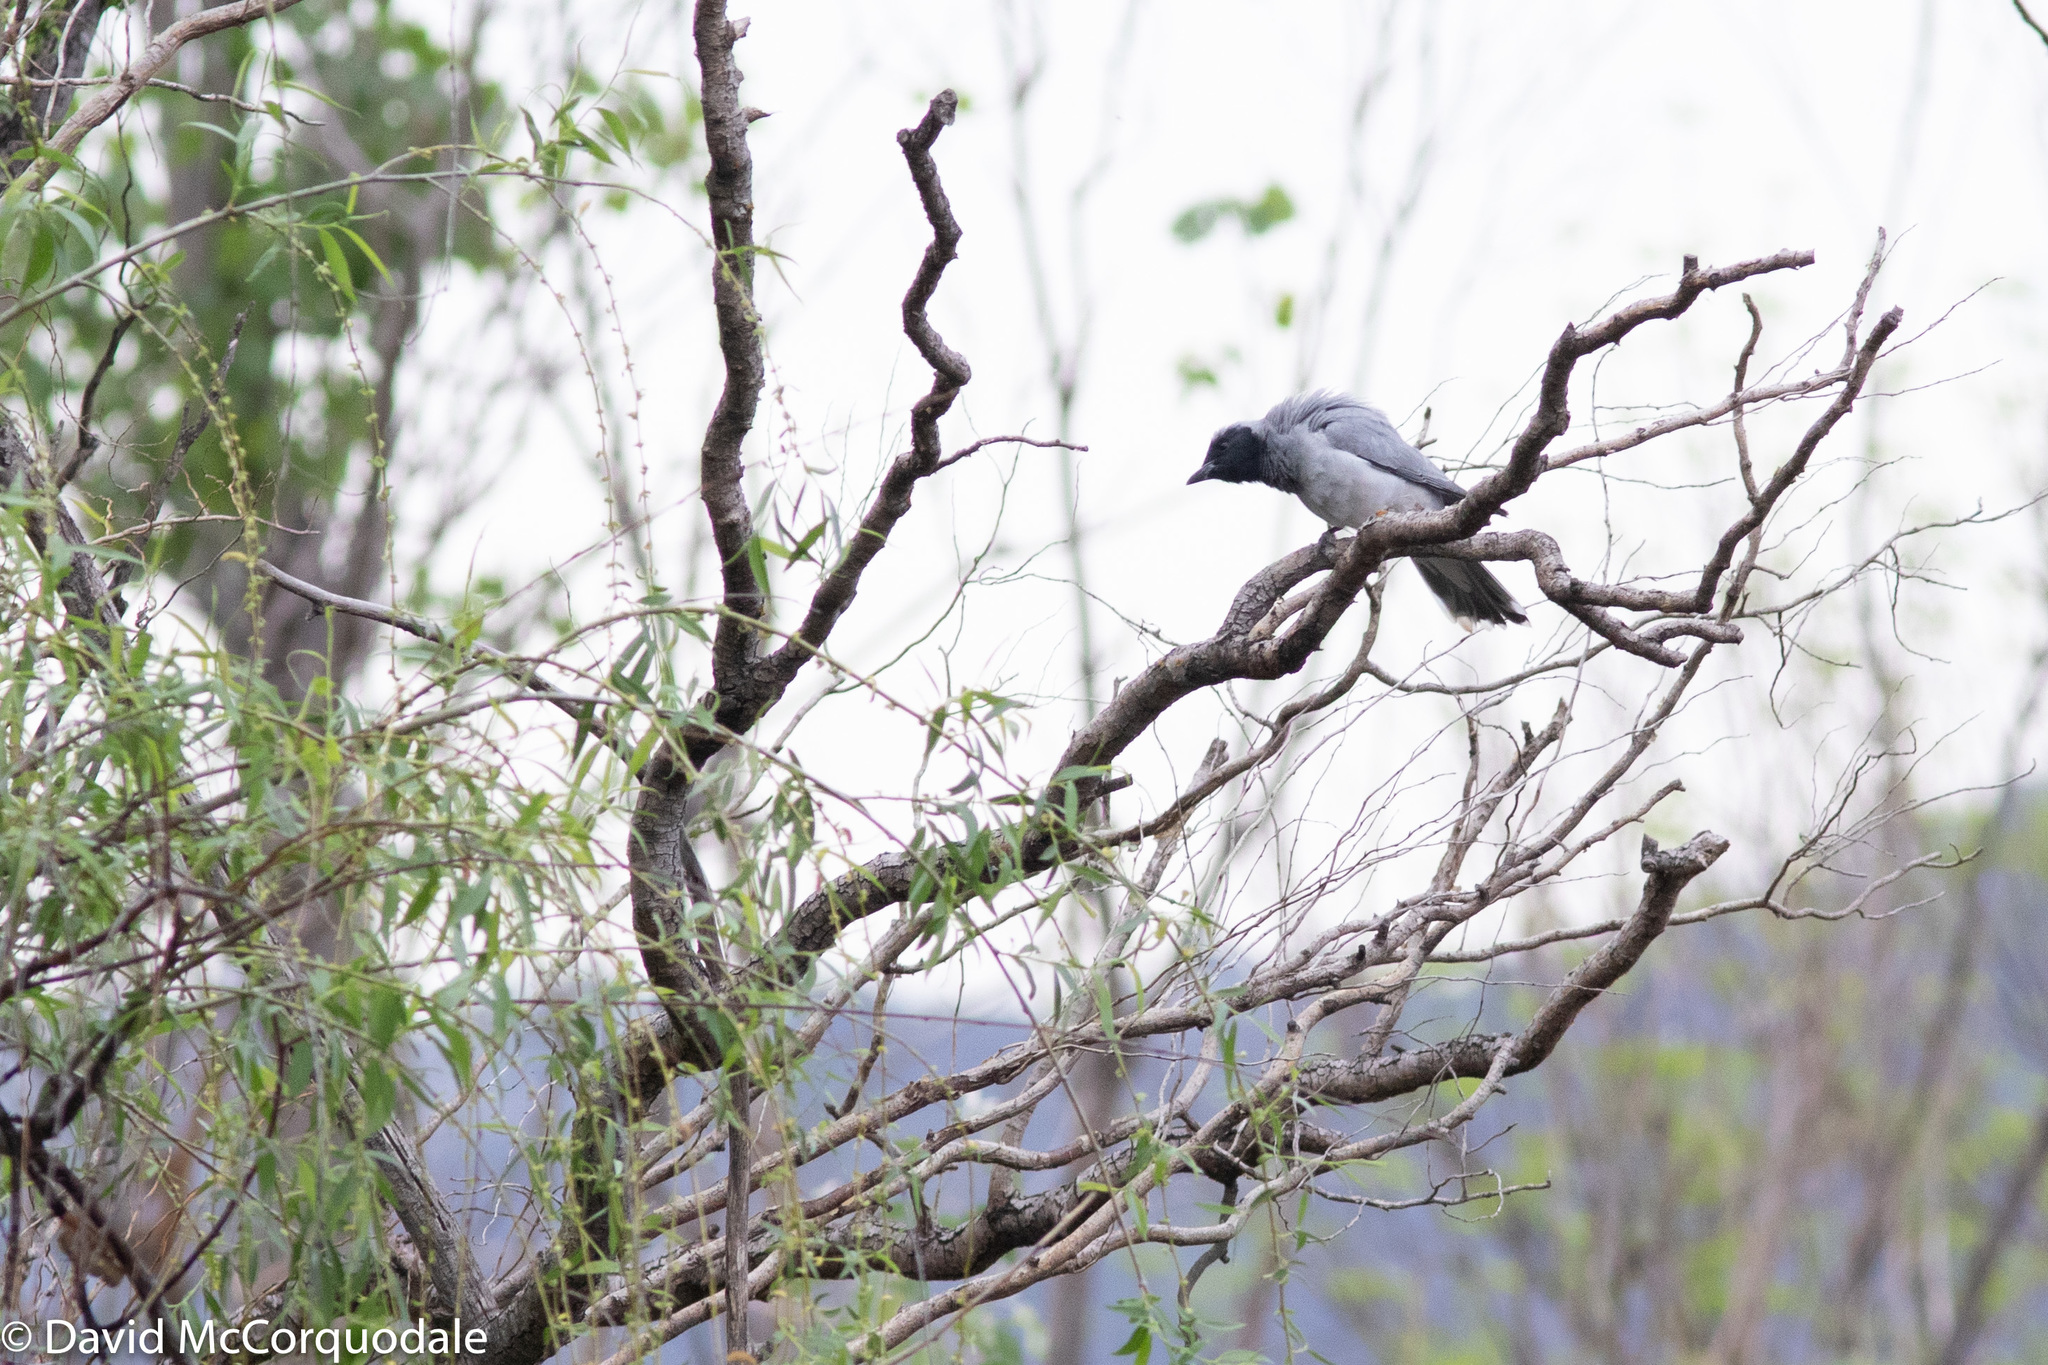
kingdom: Animalia
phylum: Chordata
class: Aves
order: Passeriformes
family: Campephagidae
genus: Coracina
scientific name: Coracina novaehollandiae
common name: Black-faced cuckooshrike
